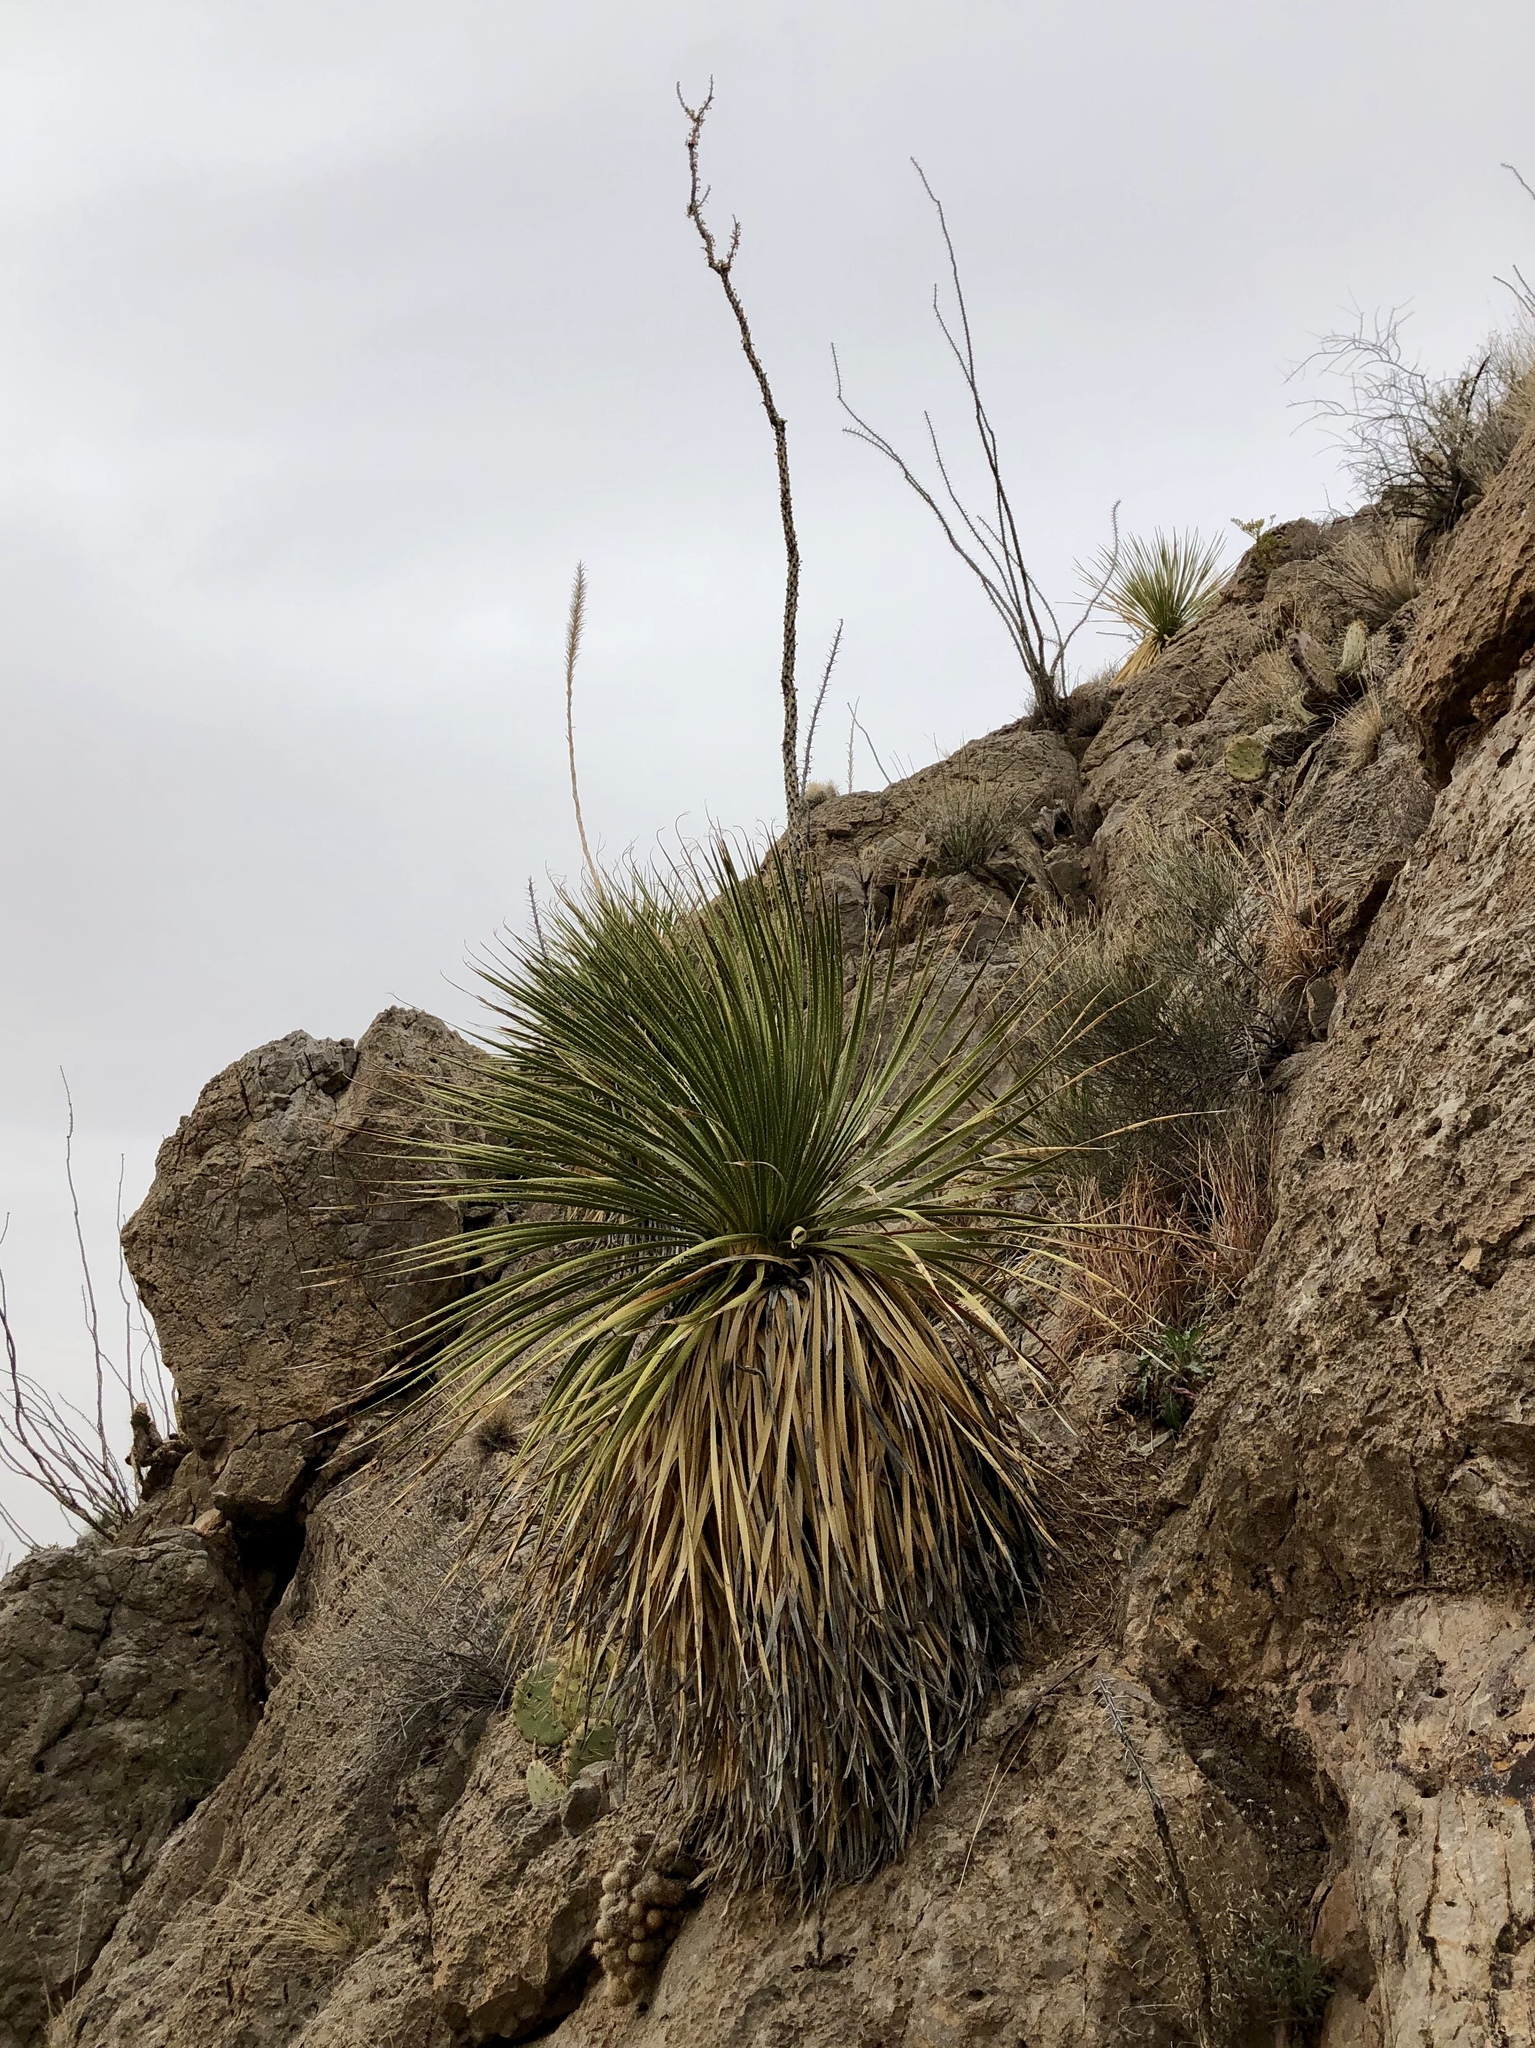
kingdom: Plantae
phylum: Tracheophyta
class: Liliopsida
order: Asparagales
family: Asparagaceae
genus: Dasylirion
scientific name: Dasylirion wheeleri
